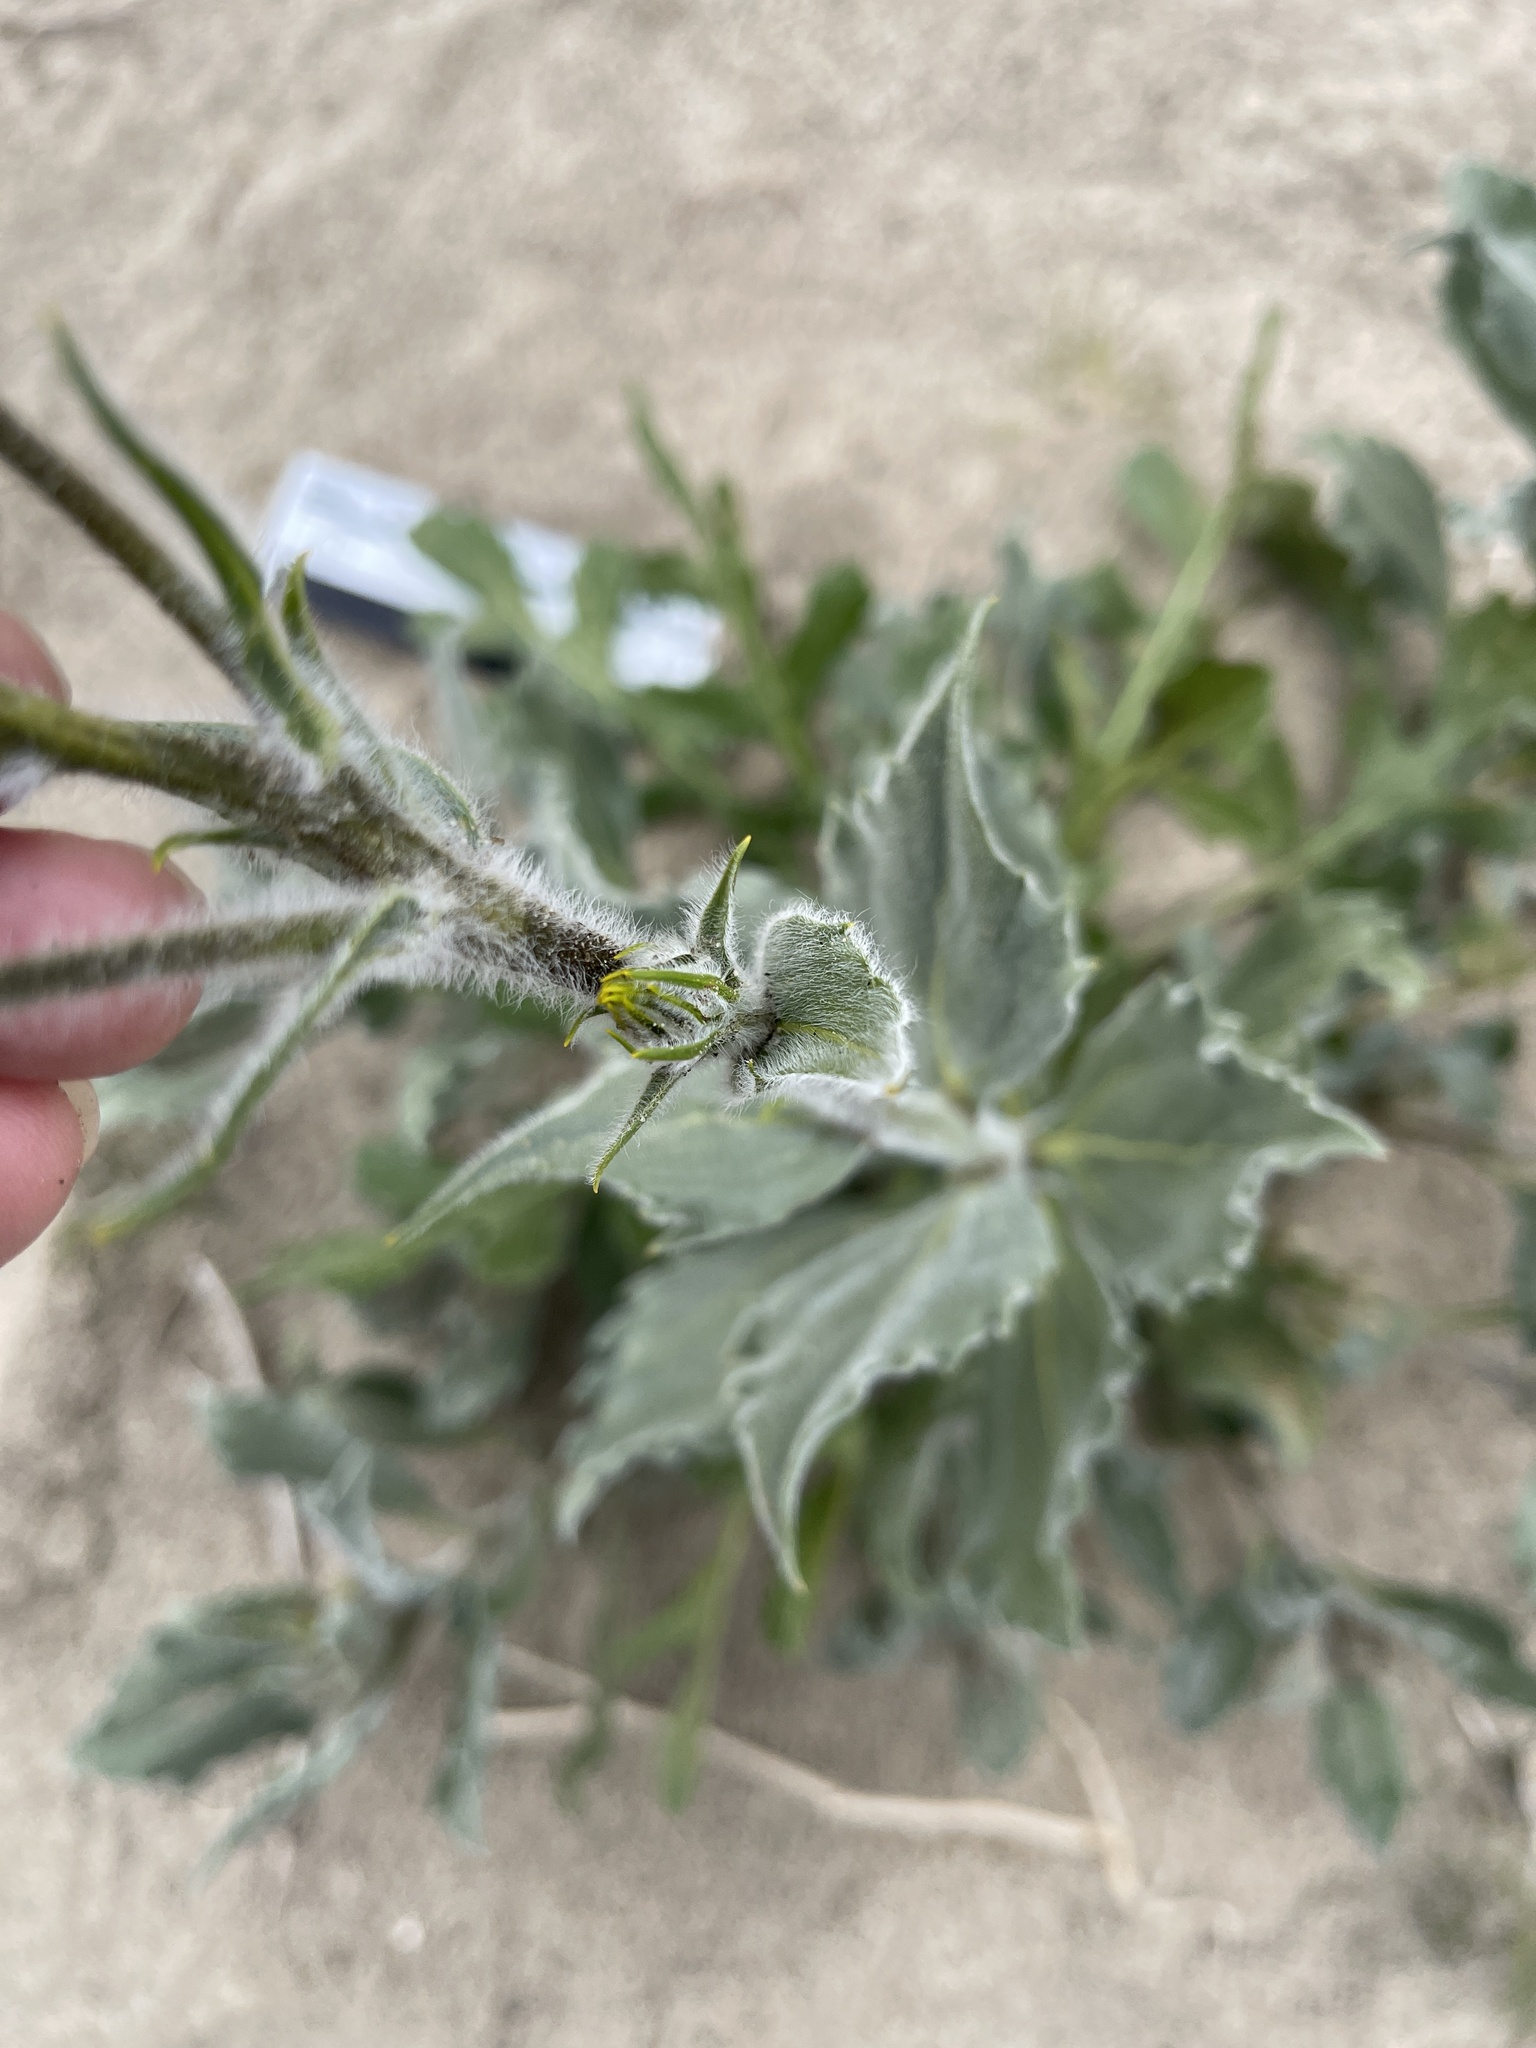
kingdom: Plantae
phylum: Tracheophyta
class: Magnoliopsida
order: Asterales
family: Asteraceae
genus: Geraea
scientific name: Geraea canescens
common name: Desert-gold
